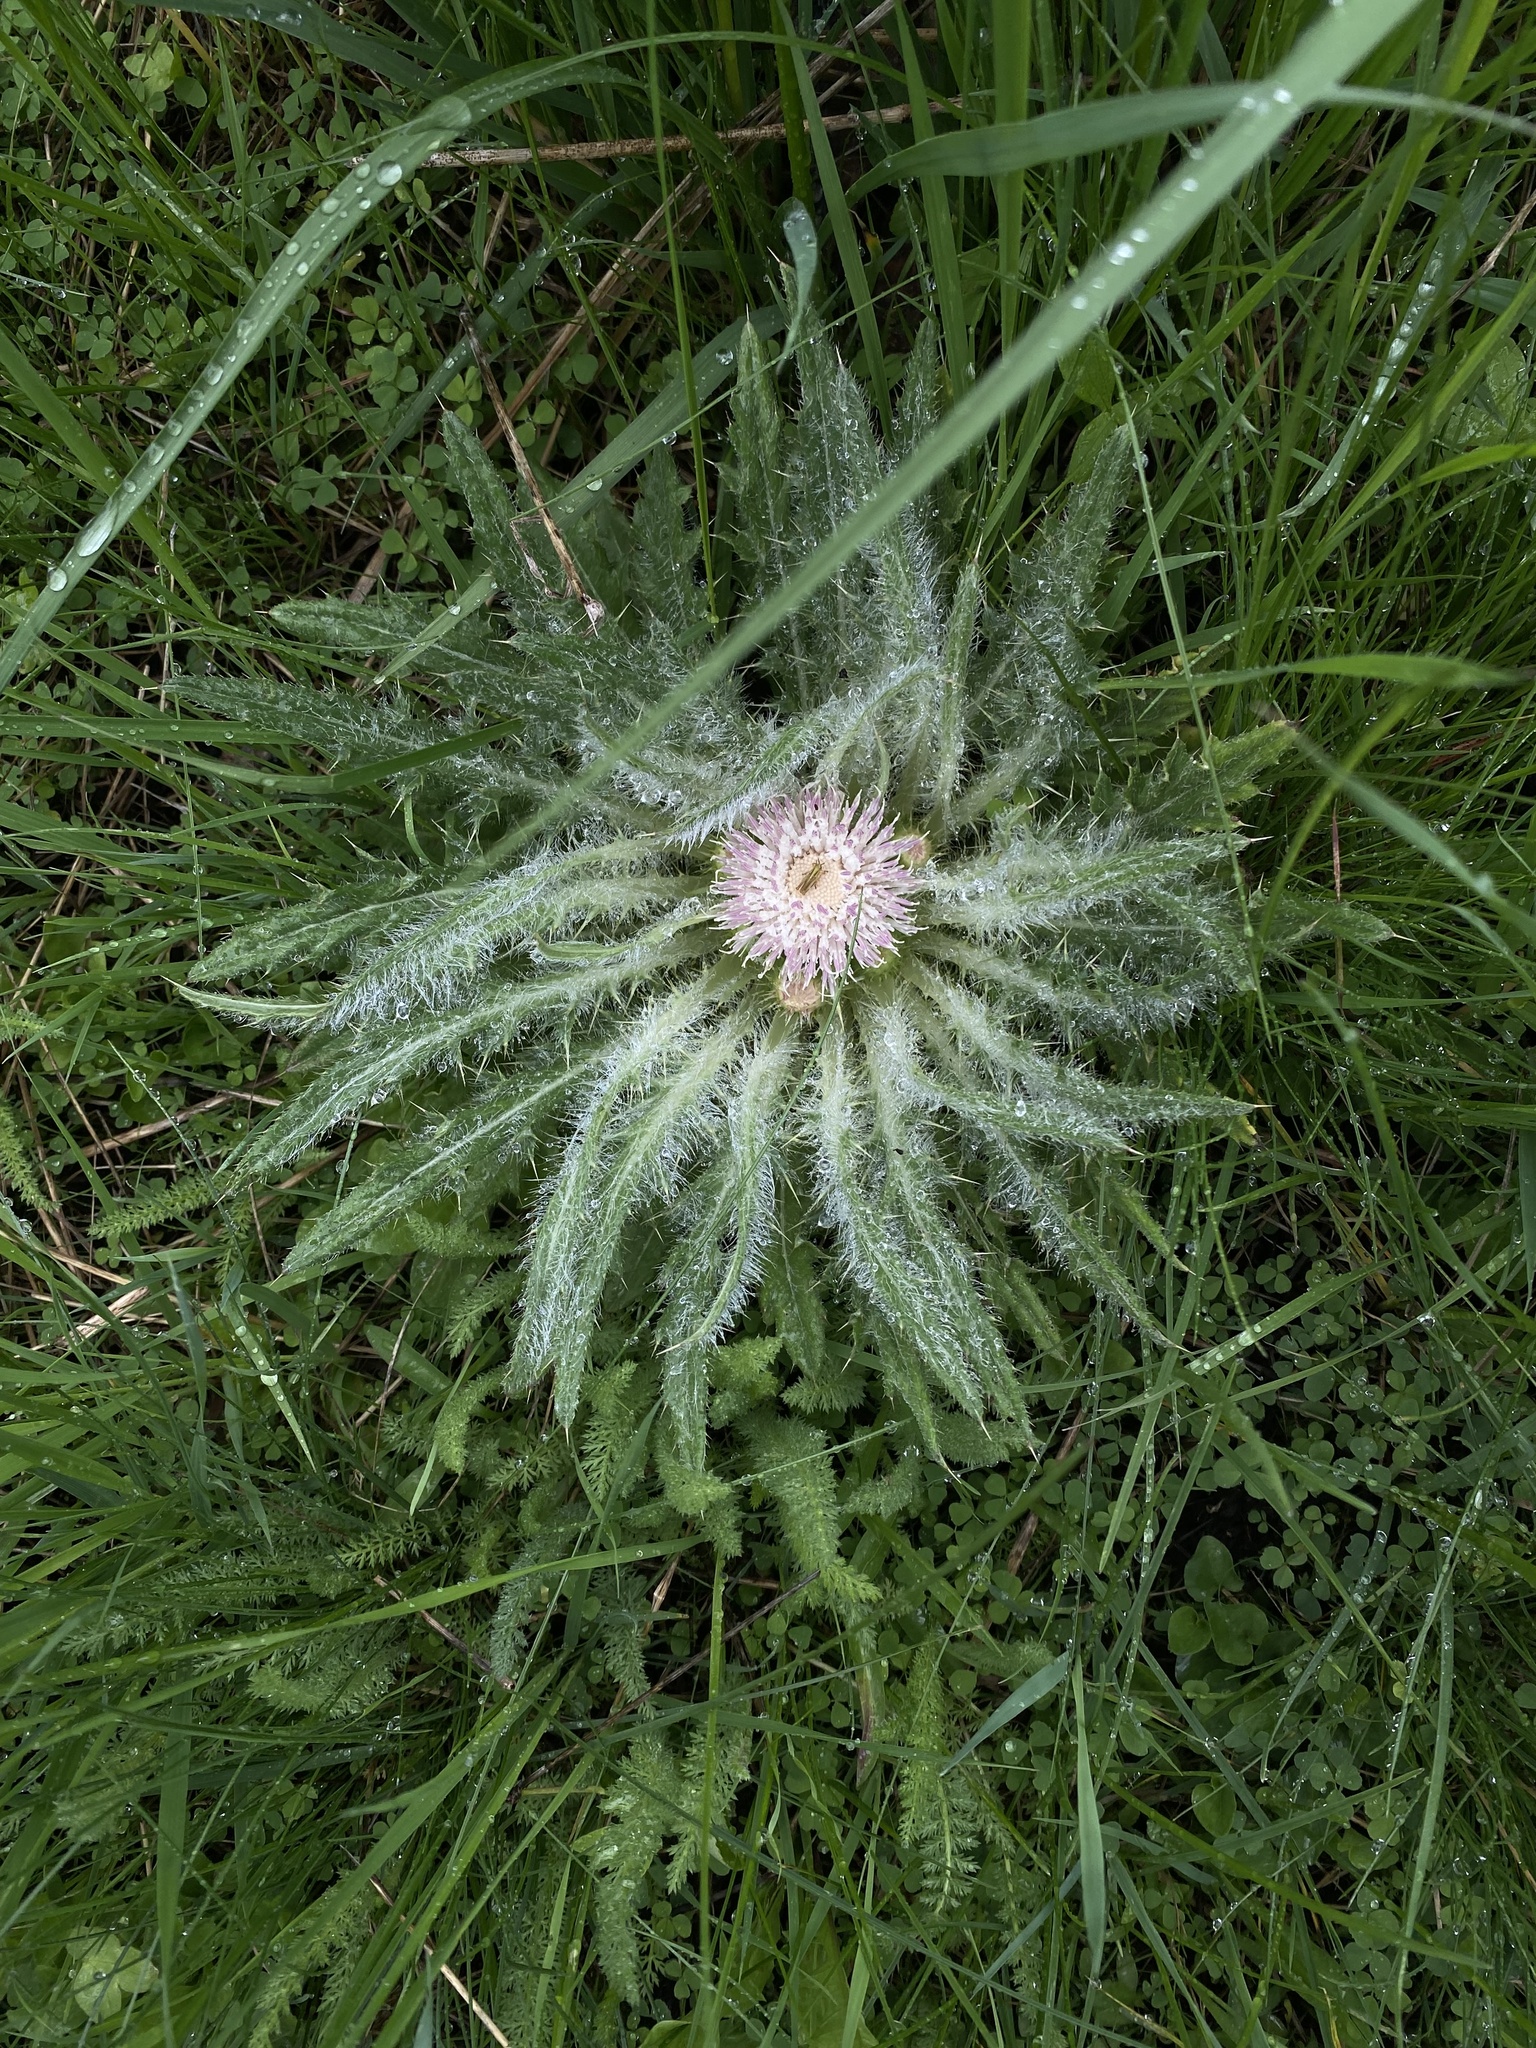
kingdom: Plantae
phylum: Tracheophyta
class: Magnoliopsida
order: Asterales
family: Asteraceae
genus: Cirsium
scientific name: Cirsium scariosum
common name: Meadow thistle
